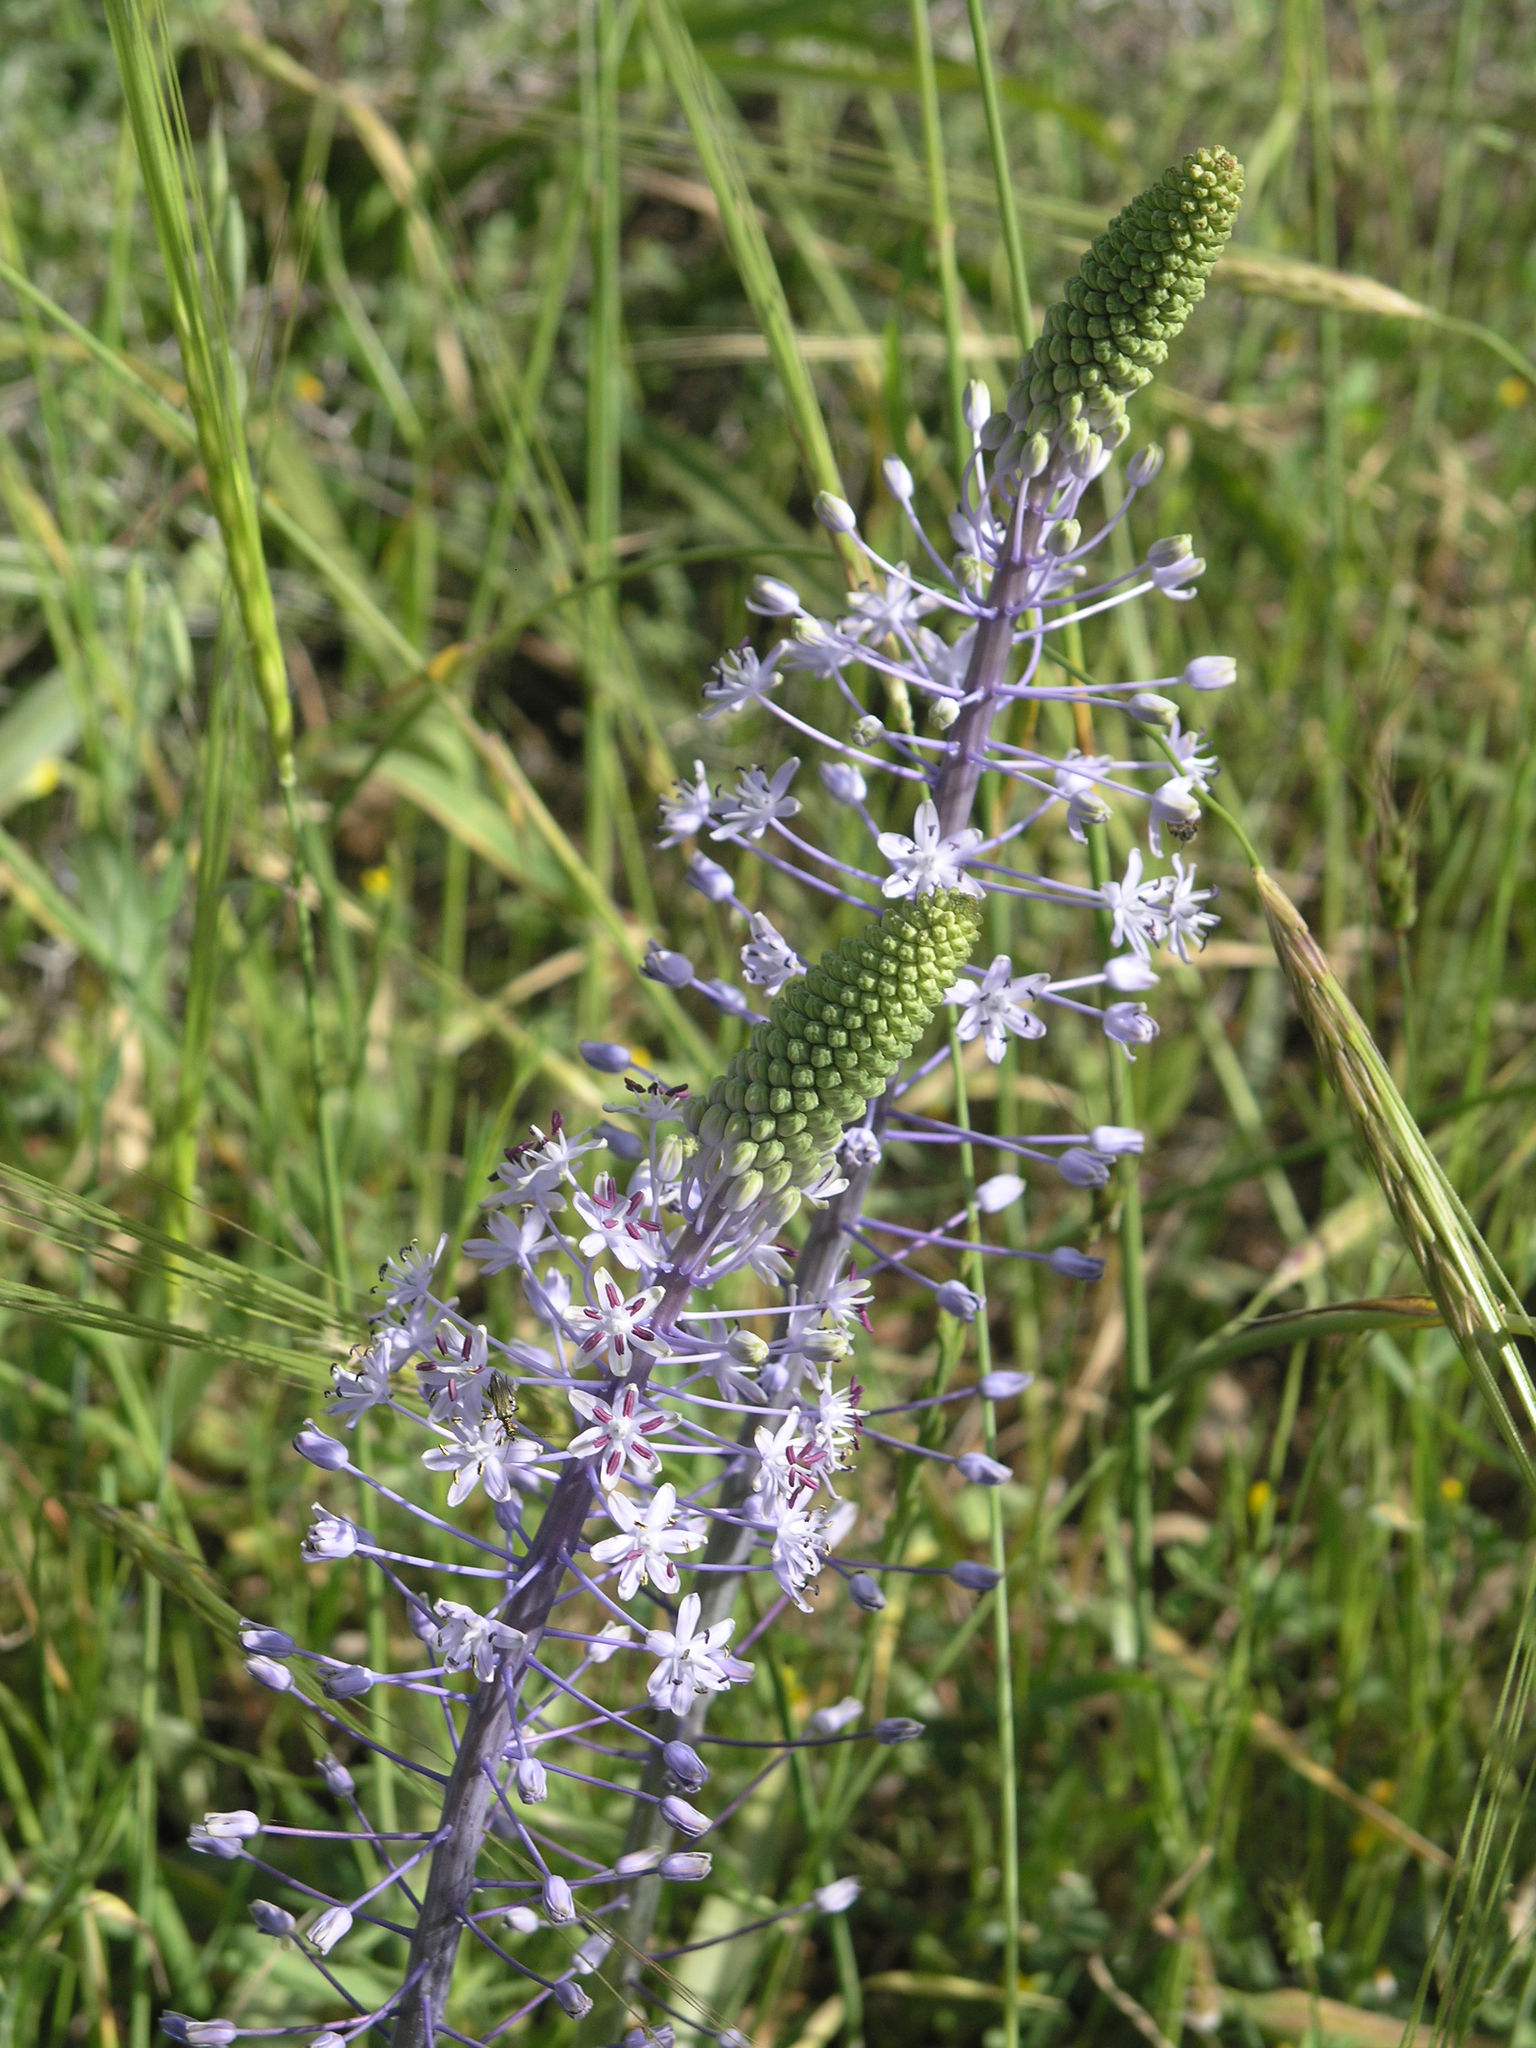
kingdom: Plantae
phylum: Tracheophyta
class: Liliopsida
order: Asparagales
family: Asparagaceae
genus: Scilla
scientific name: Scilla hyacinthoides
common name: Scilla
